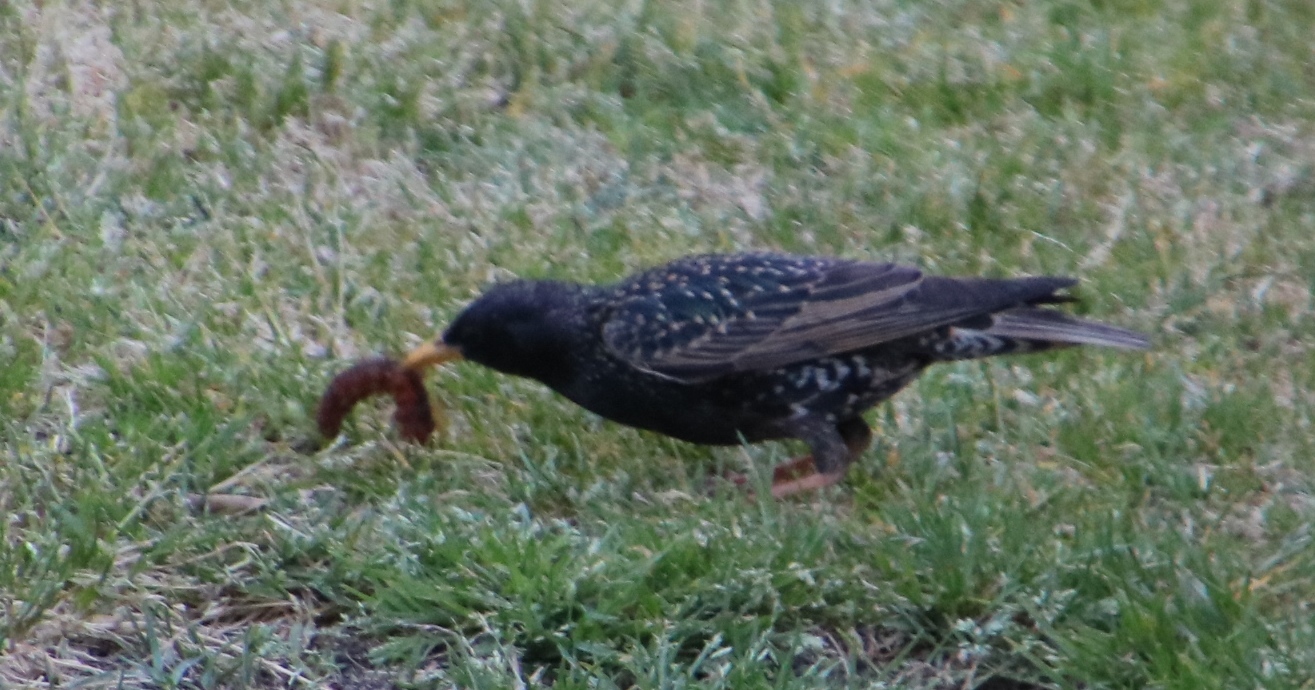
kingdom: Animalia
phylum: Chordata
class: Aves
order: Passeriformes
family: Sturnidae
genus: Sturnus
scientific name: Sturnus vulgaris
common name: Common starling
